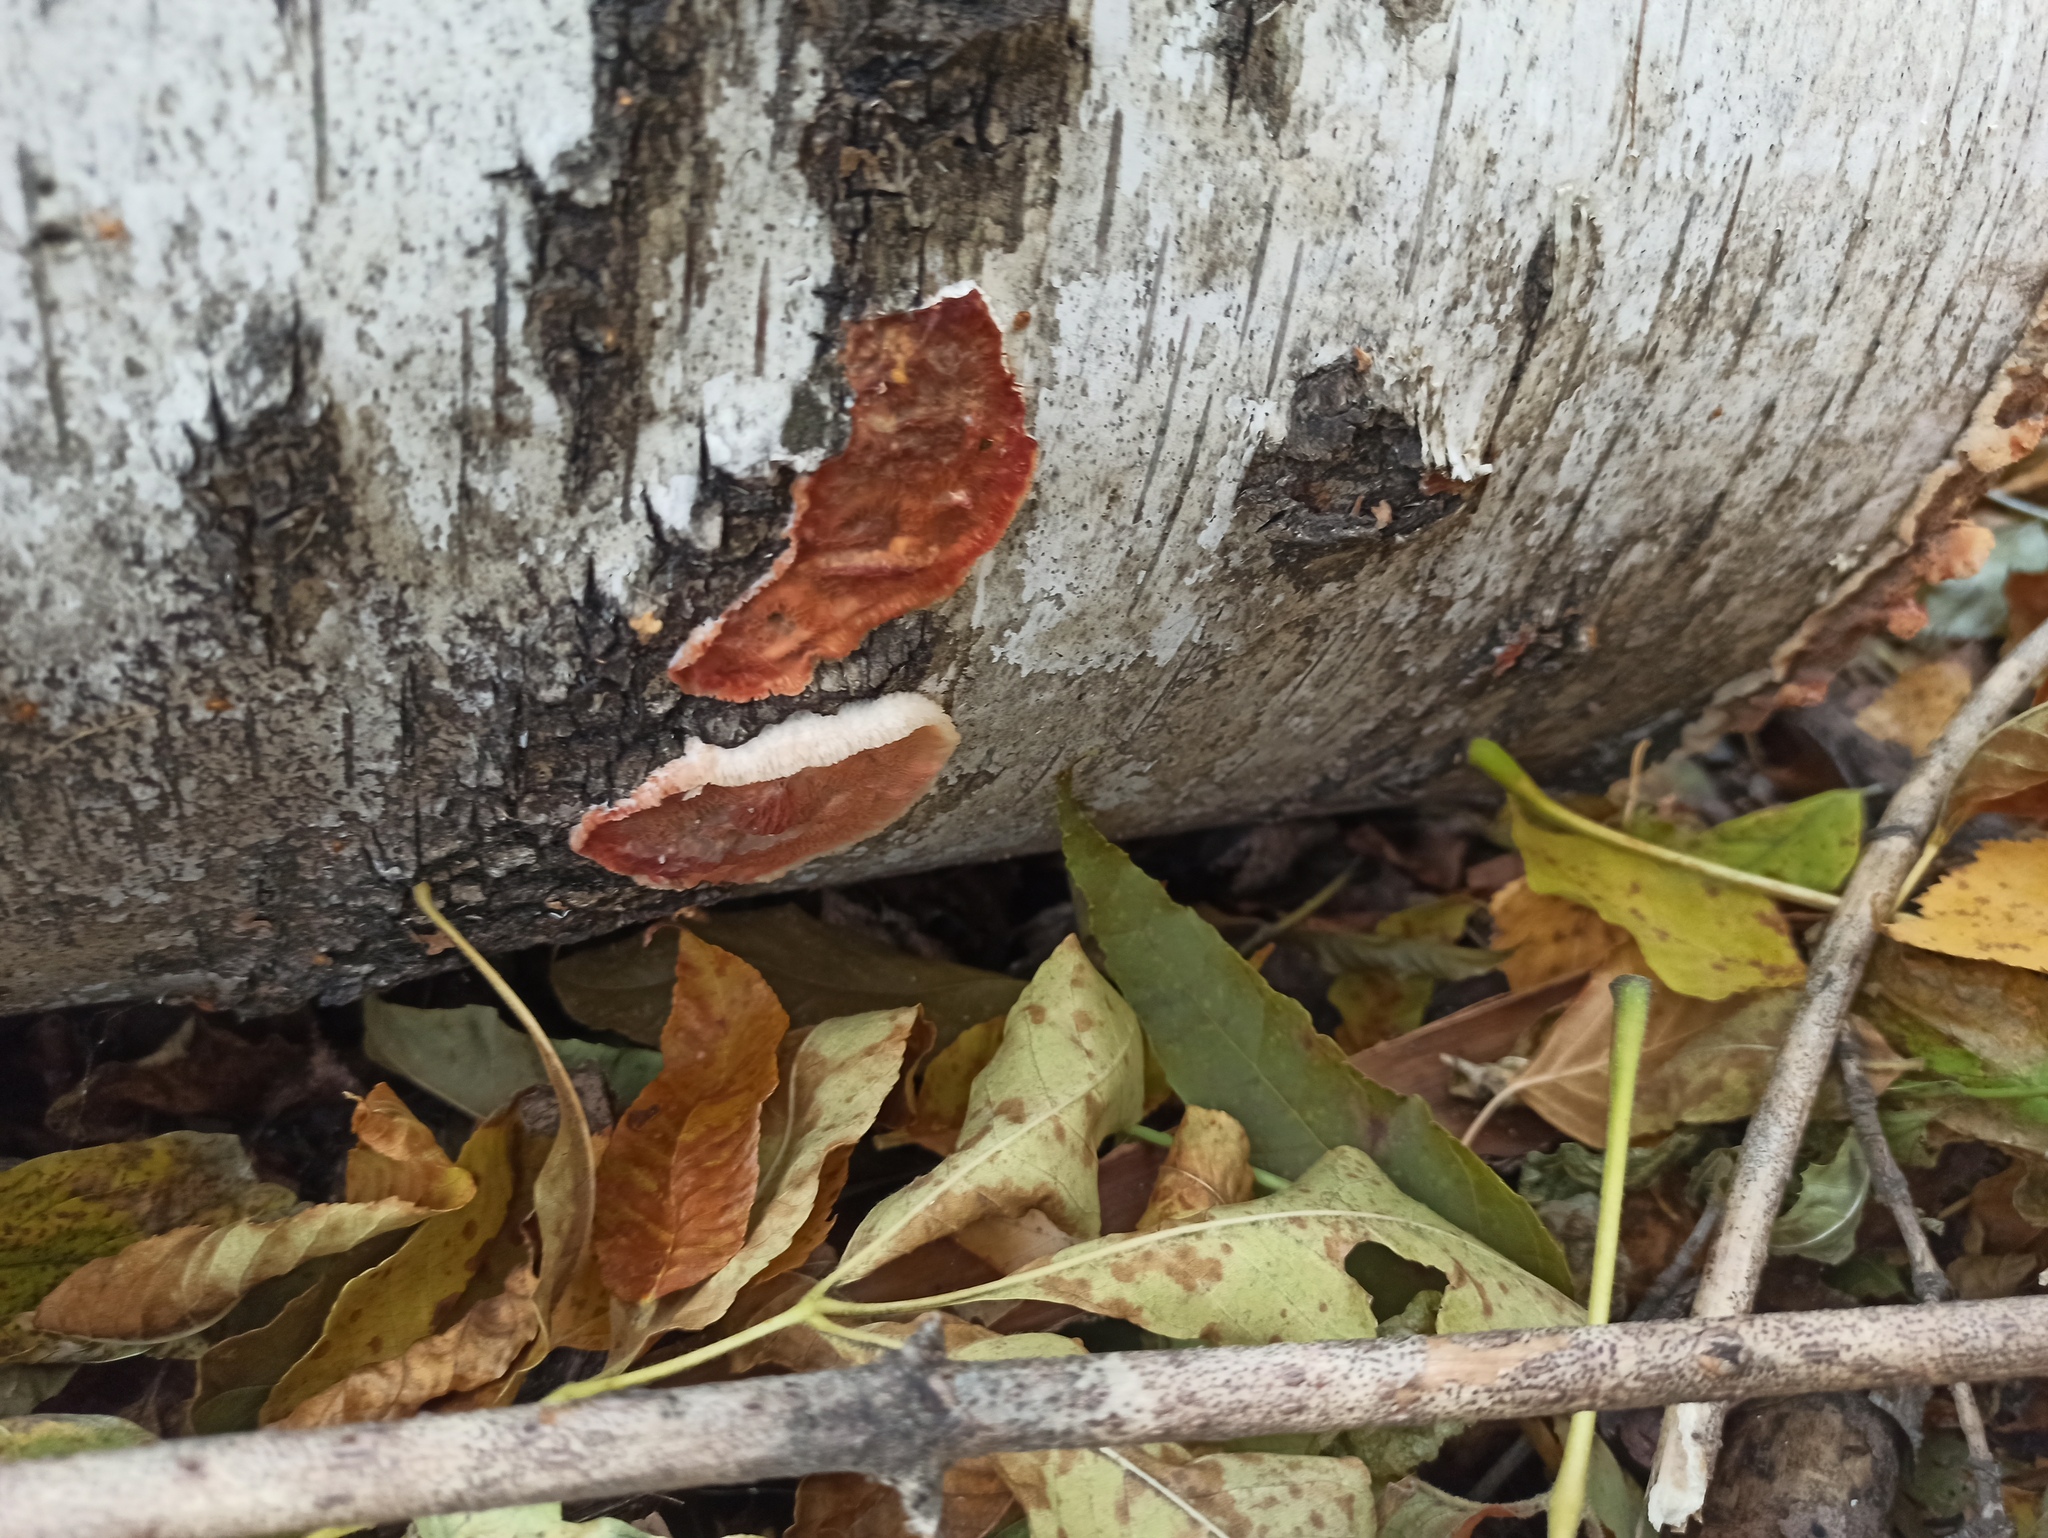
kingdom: Fungi
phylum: Basidiomycota
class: Agaricomycetes
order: Polyporales
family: Meruliaceae
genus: Phlebia
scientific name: Phlebia tremellosa
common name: Jelly rot
